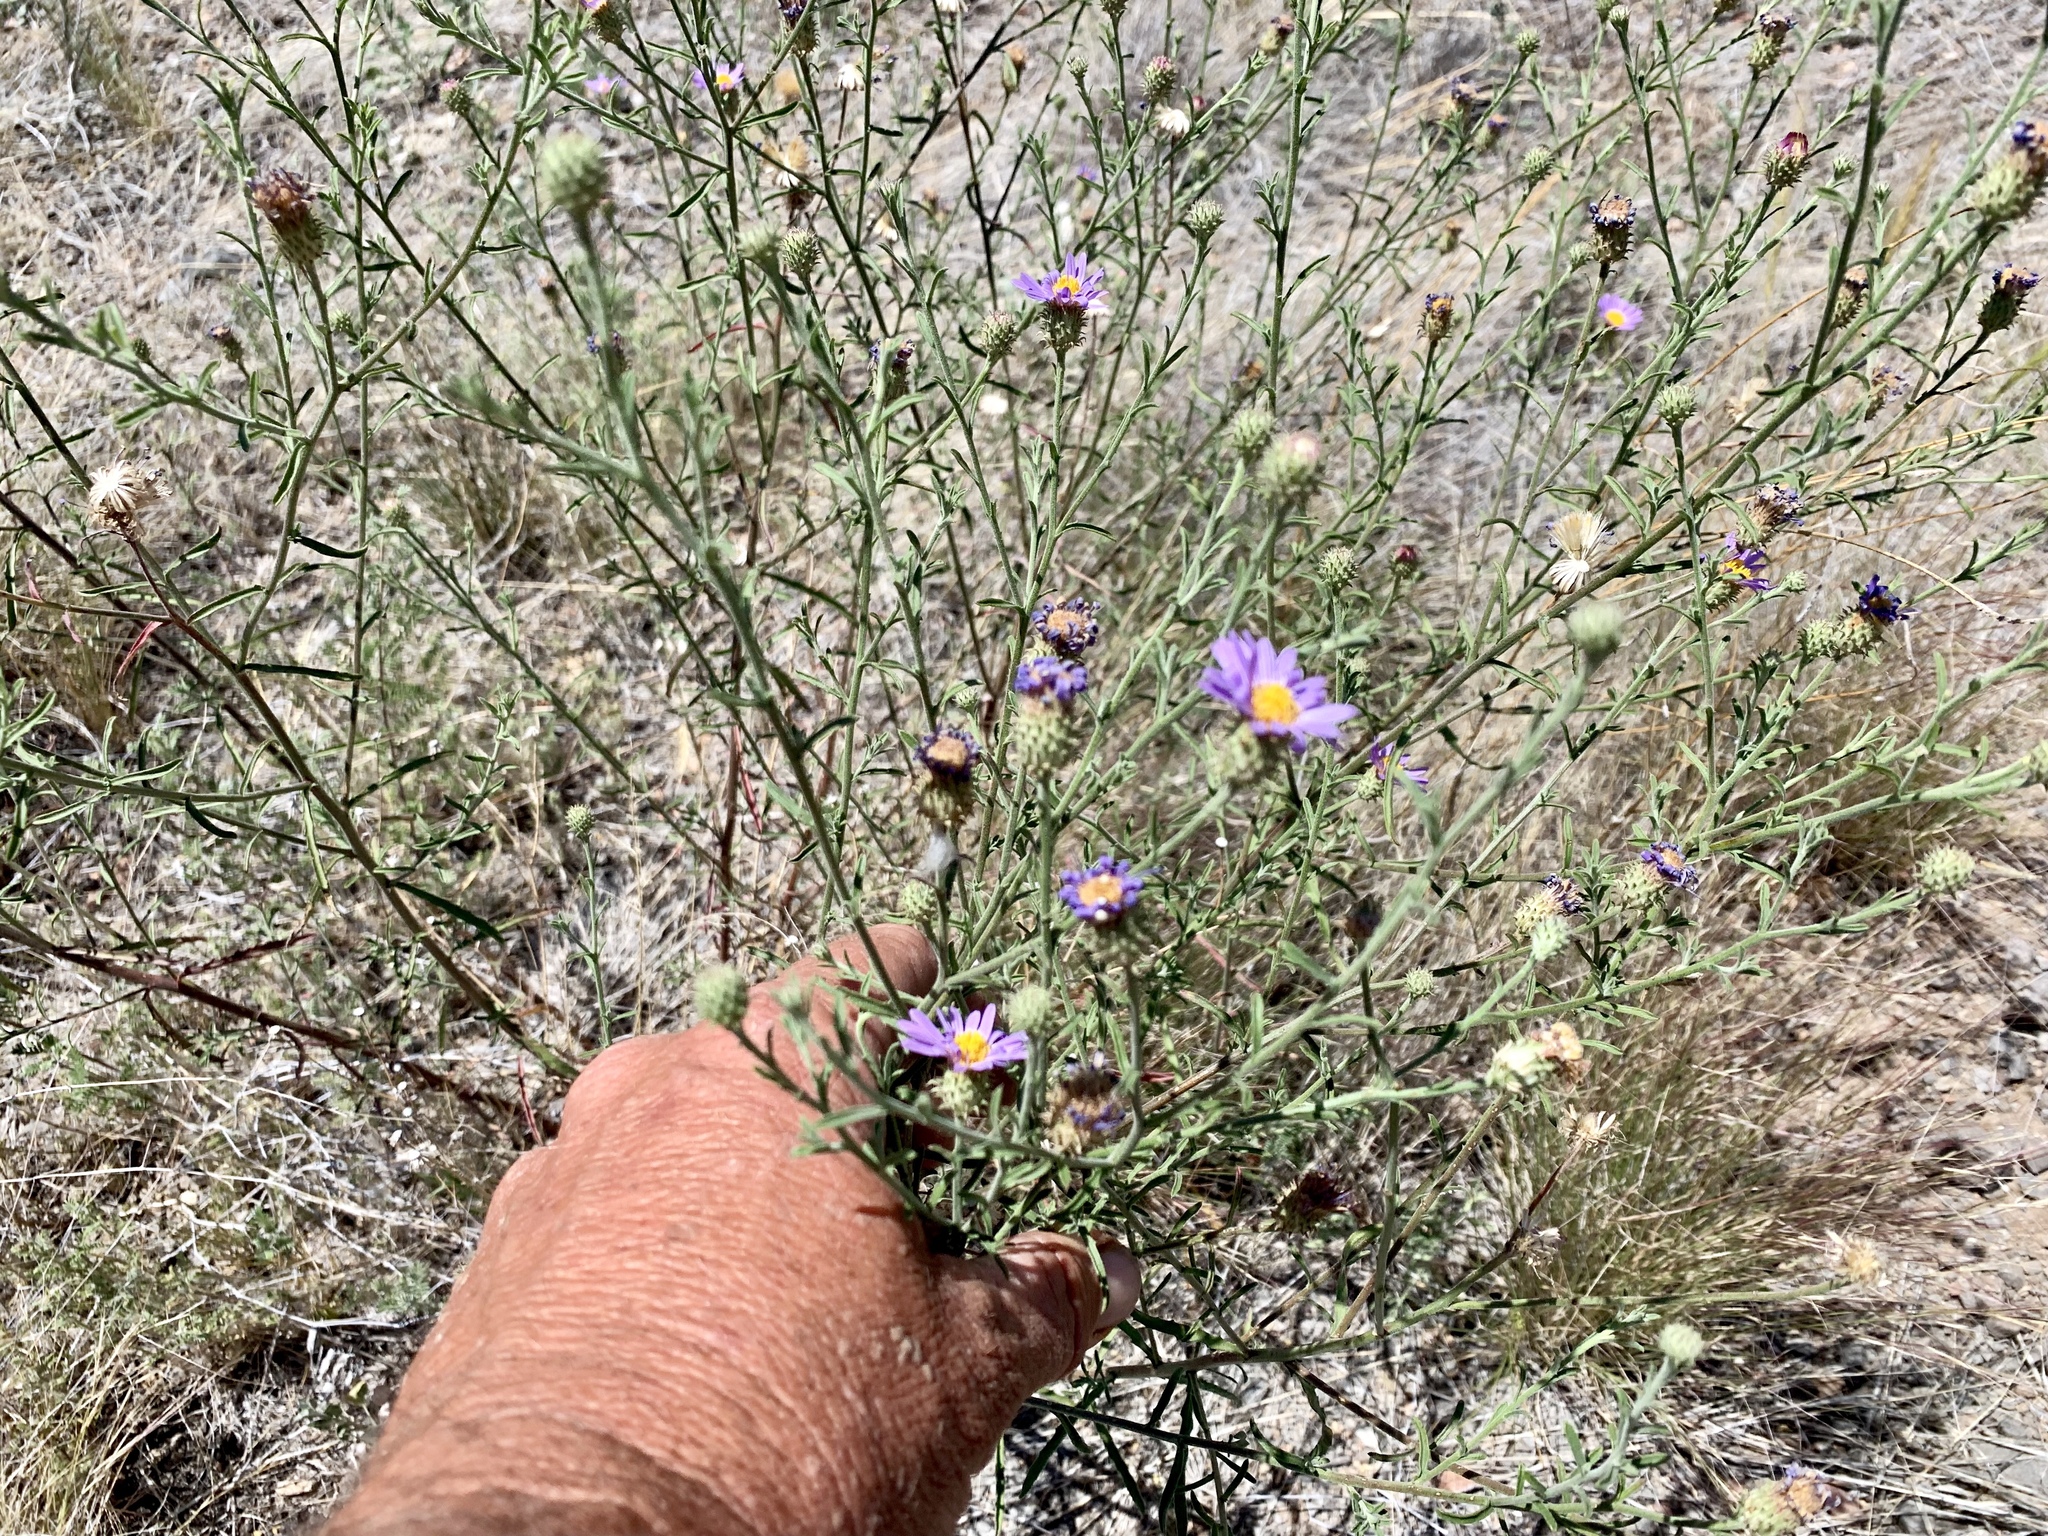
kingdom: Plantae
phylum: Tracheophyta
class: Magnoliopsida
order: Asterales
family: Asteraceae
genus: Dieteria
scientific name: Dieteria canescens
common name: Hoary-aster
